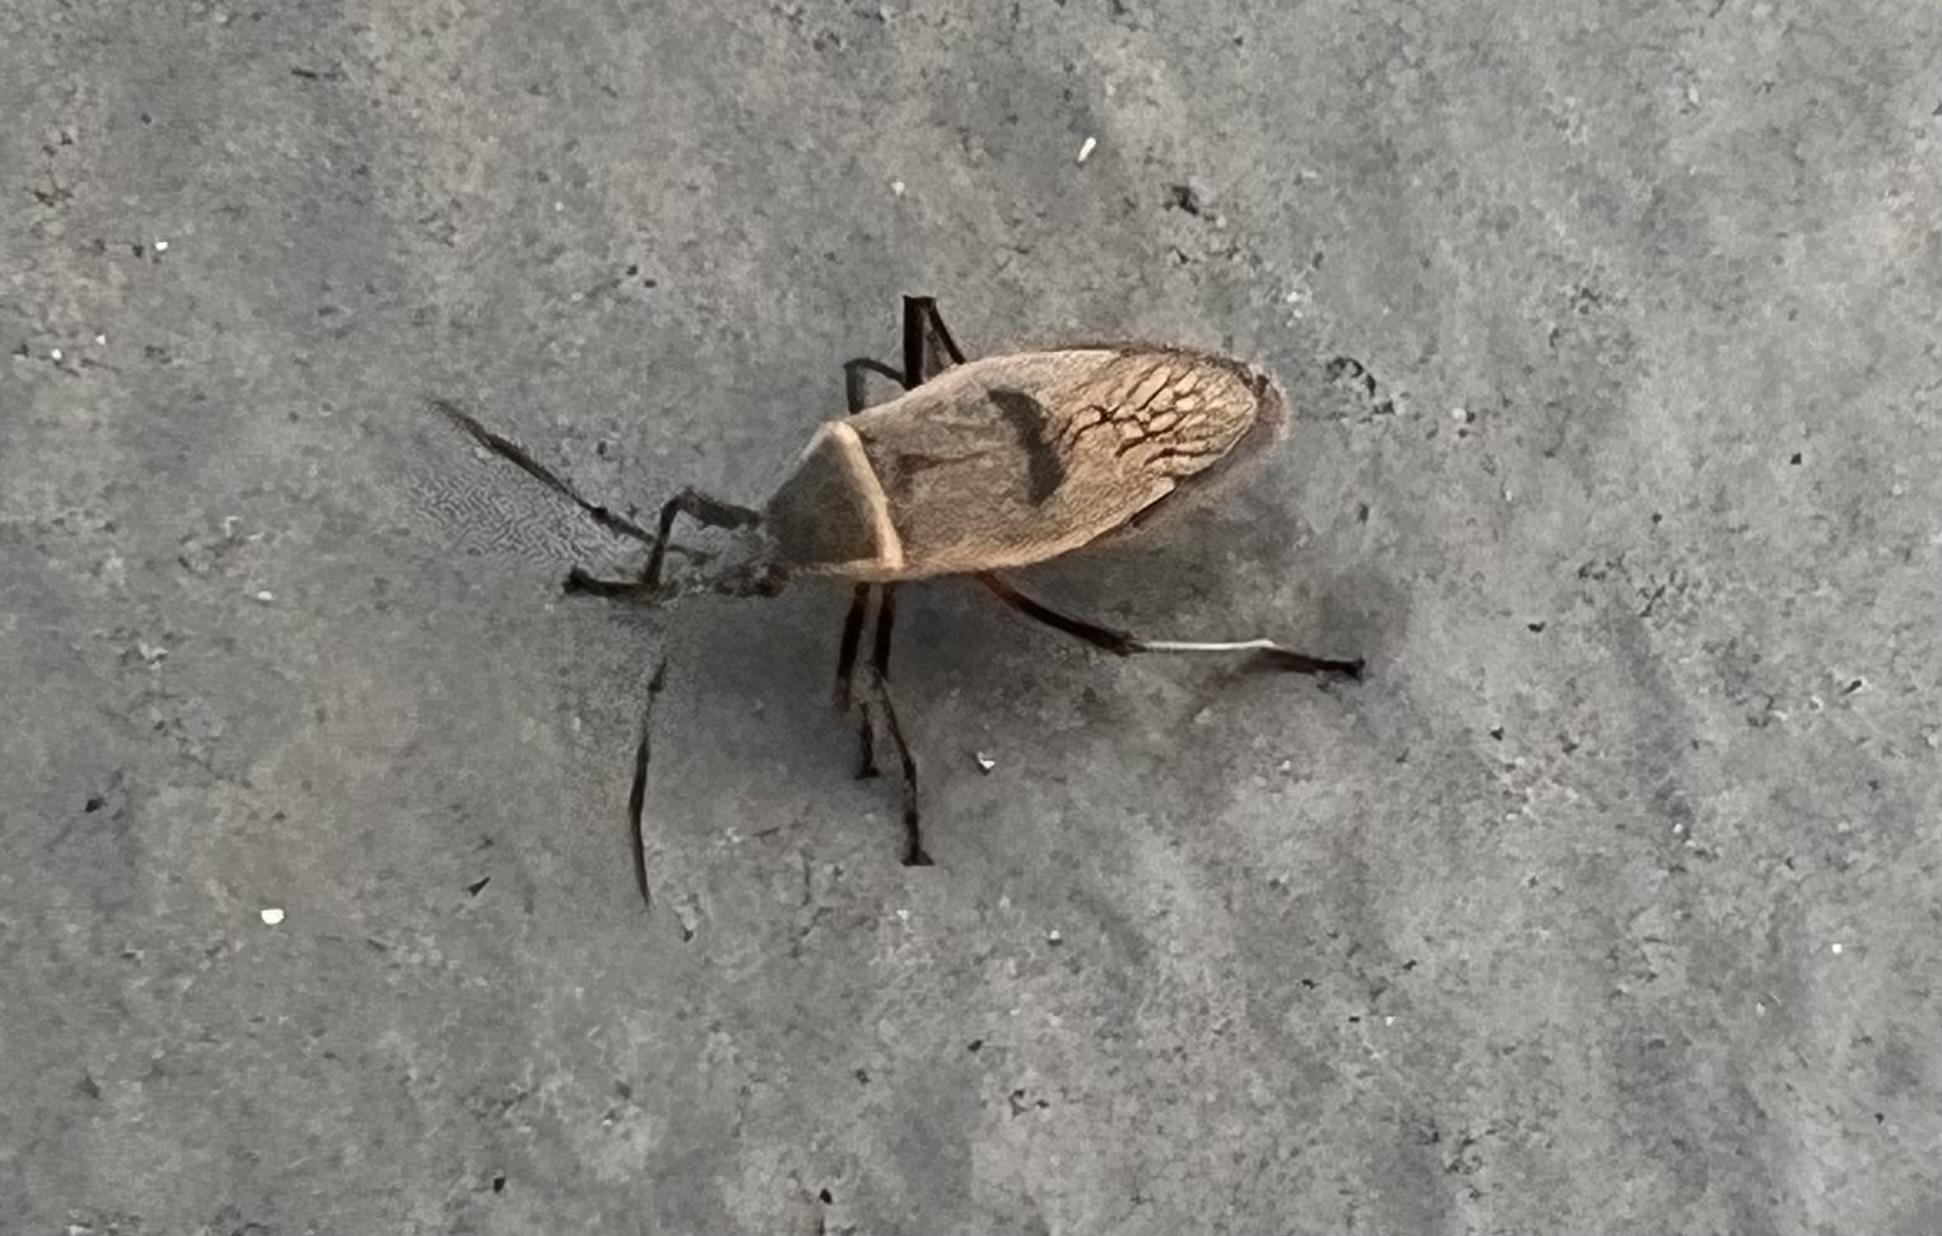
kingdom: Animalia
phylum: Arthropoda
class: Insecta
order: Hemiptera
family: Largidae
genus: Largus
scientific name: Largus maculatus
